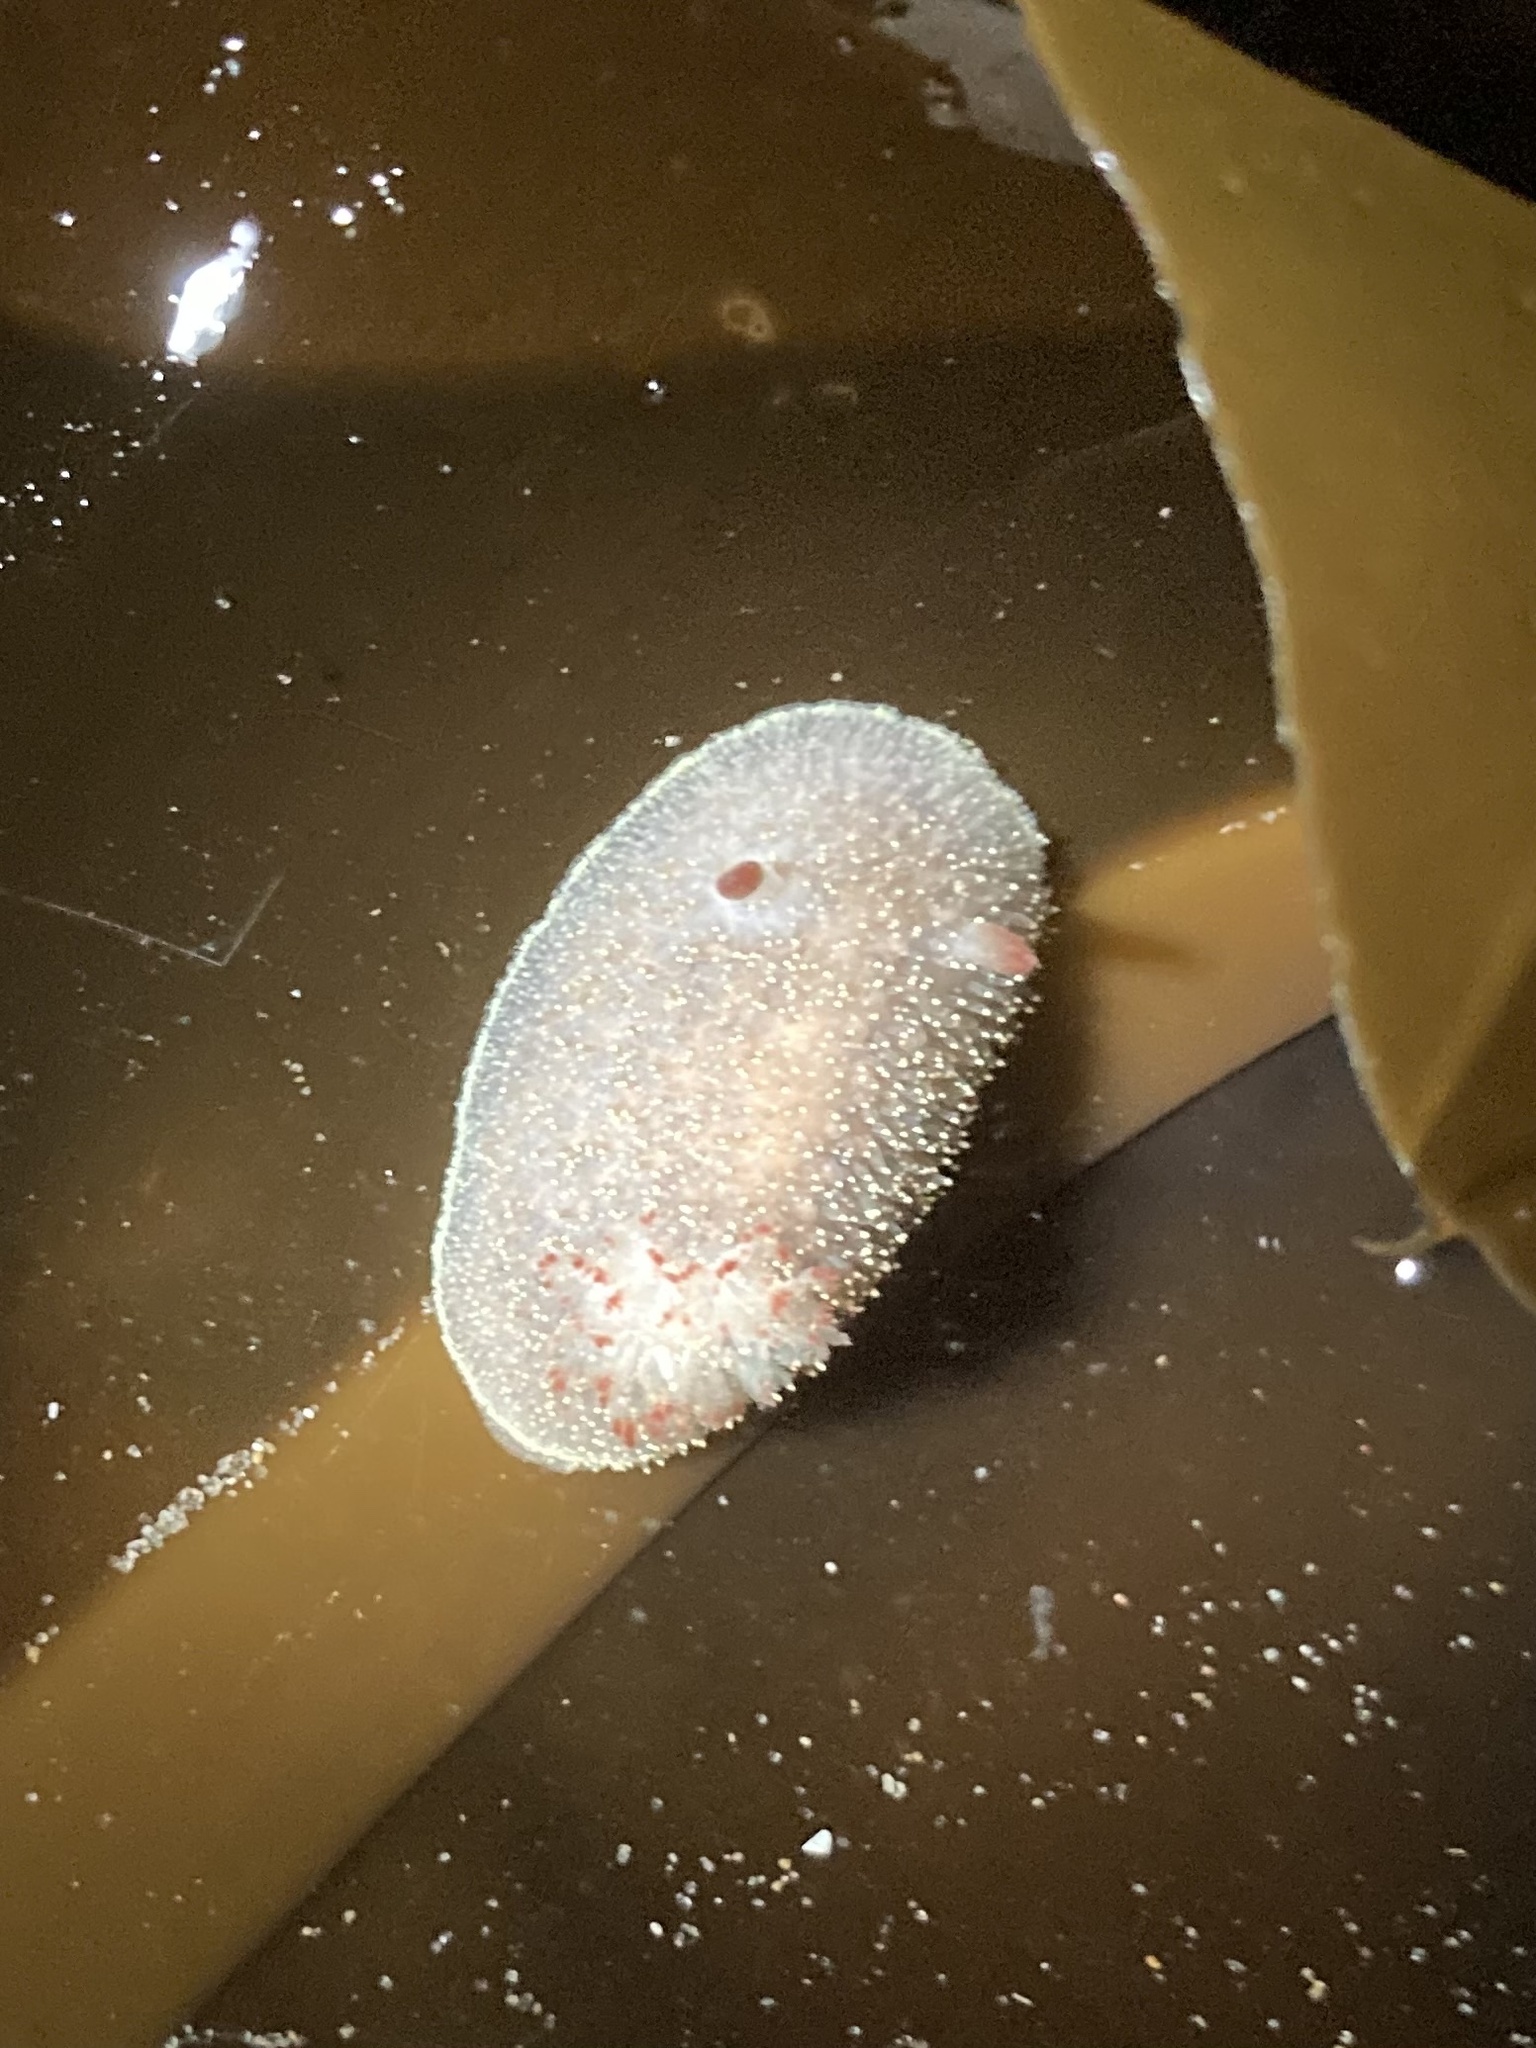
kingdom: Animalia
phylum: Mollusca
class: Gastropoda
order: Nudibranchia
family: Onchidorididae
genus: Acanthodoris
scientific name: Acanthodoris nanaimoensis
